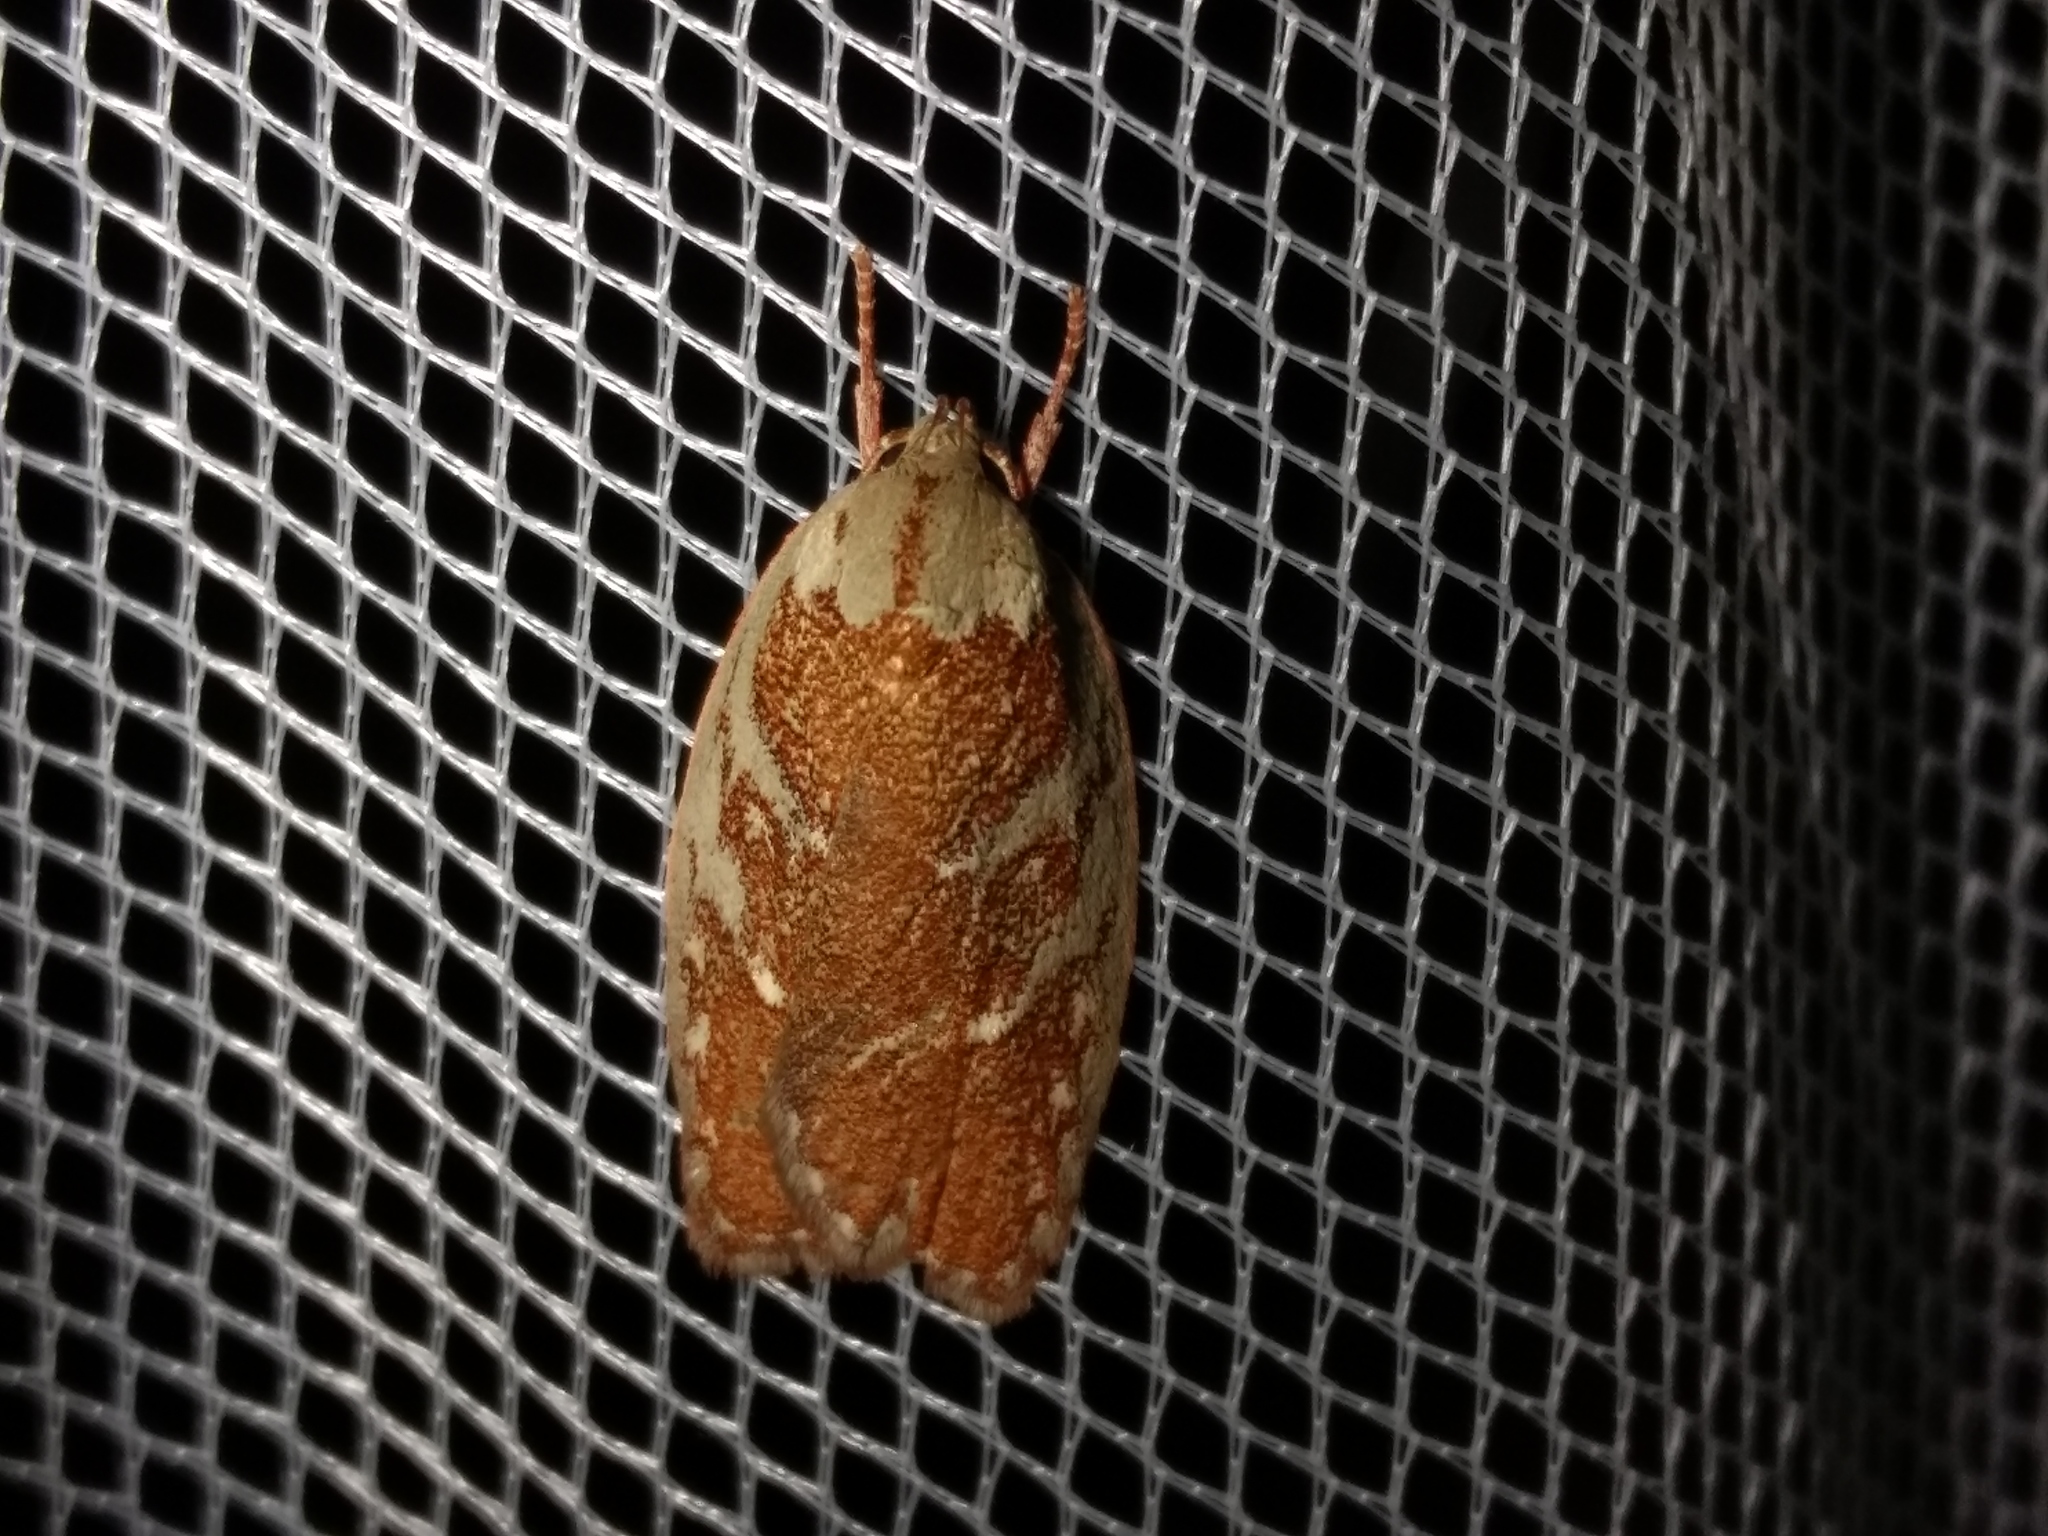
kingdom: Animalia
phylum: Arthropoda
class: Insecta
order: Lepidoptera
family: Oecophoridae
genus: Euchaetis
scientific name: Euchaetis rhizobola
